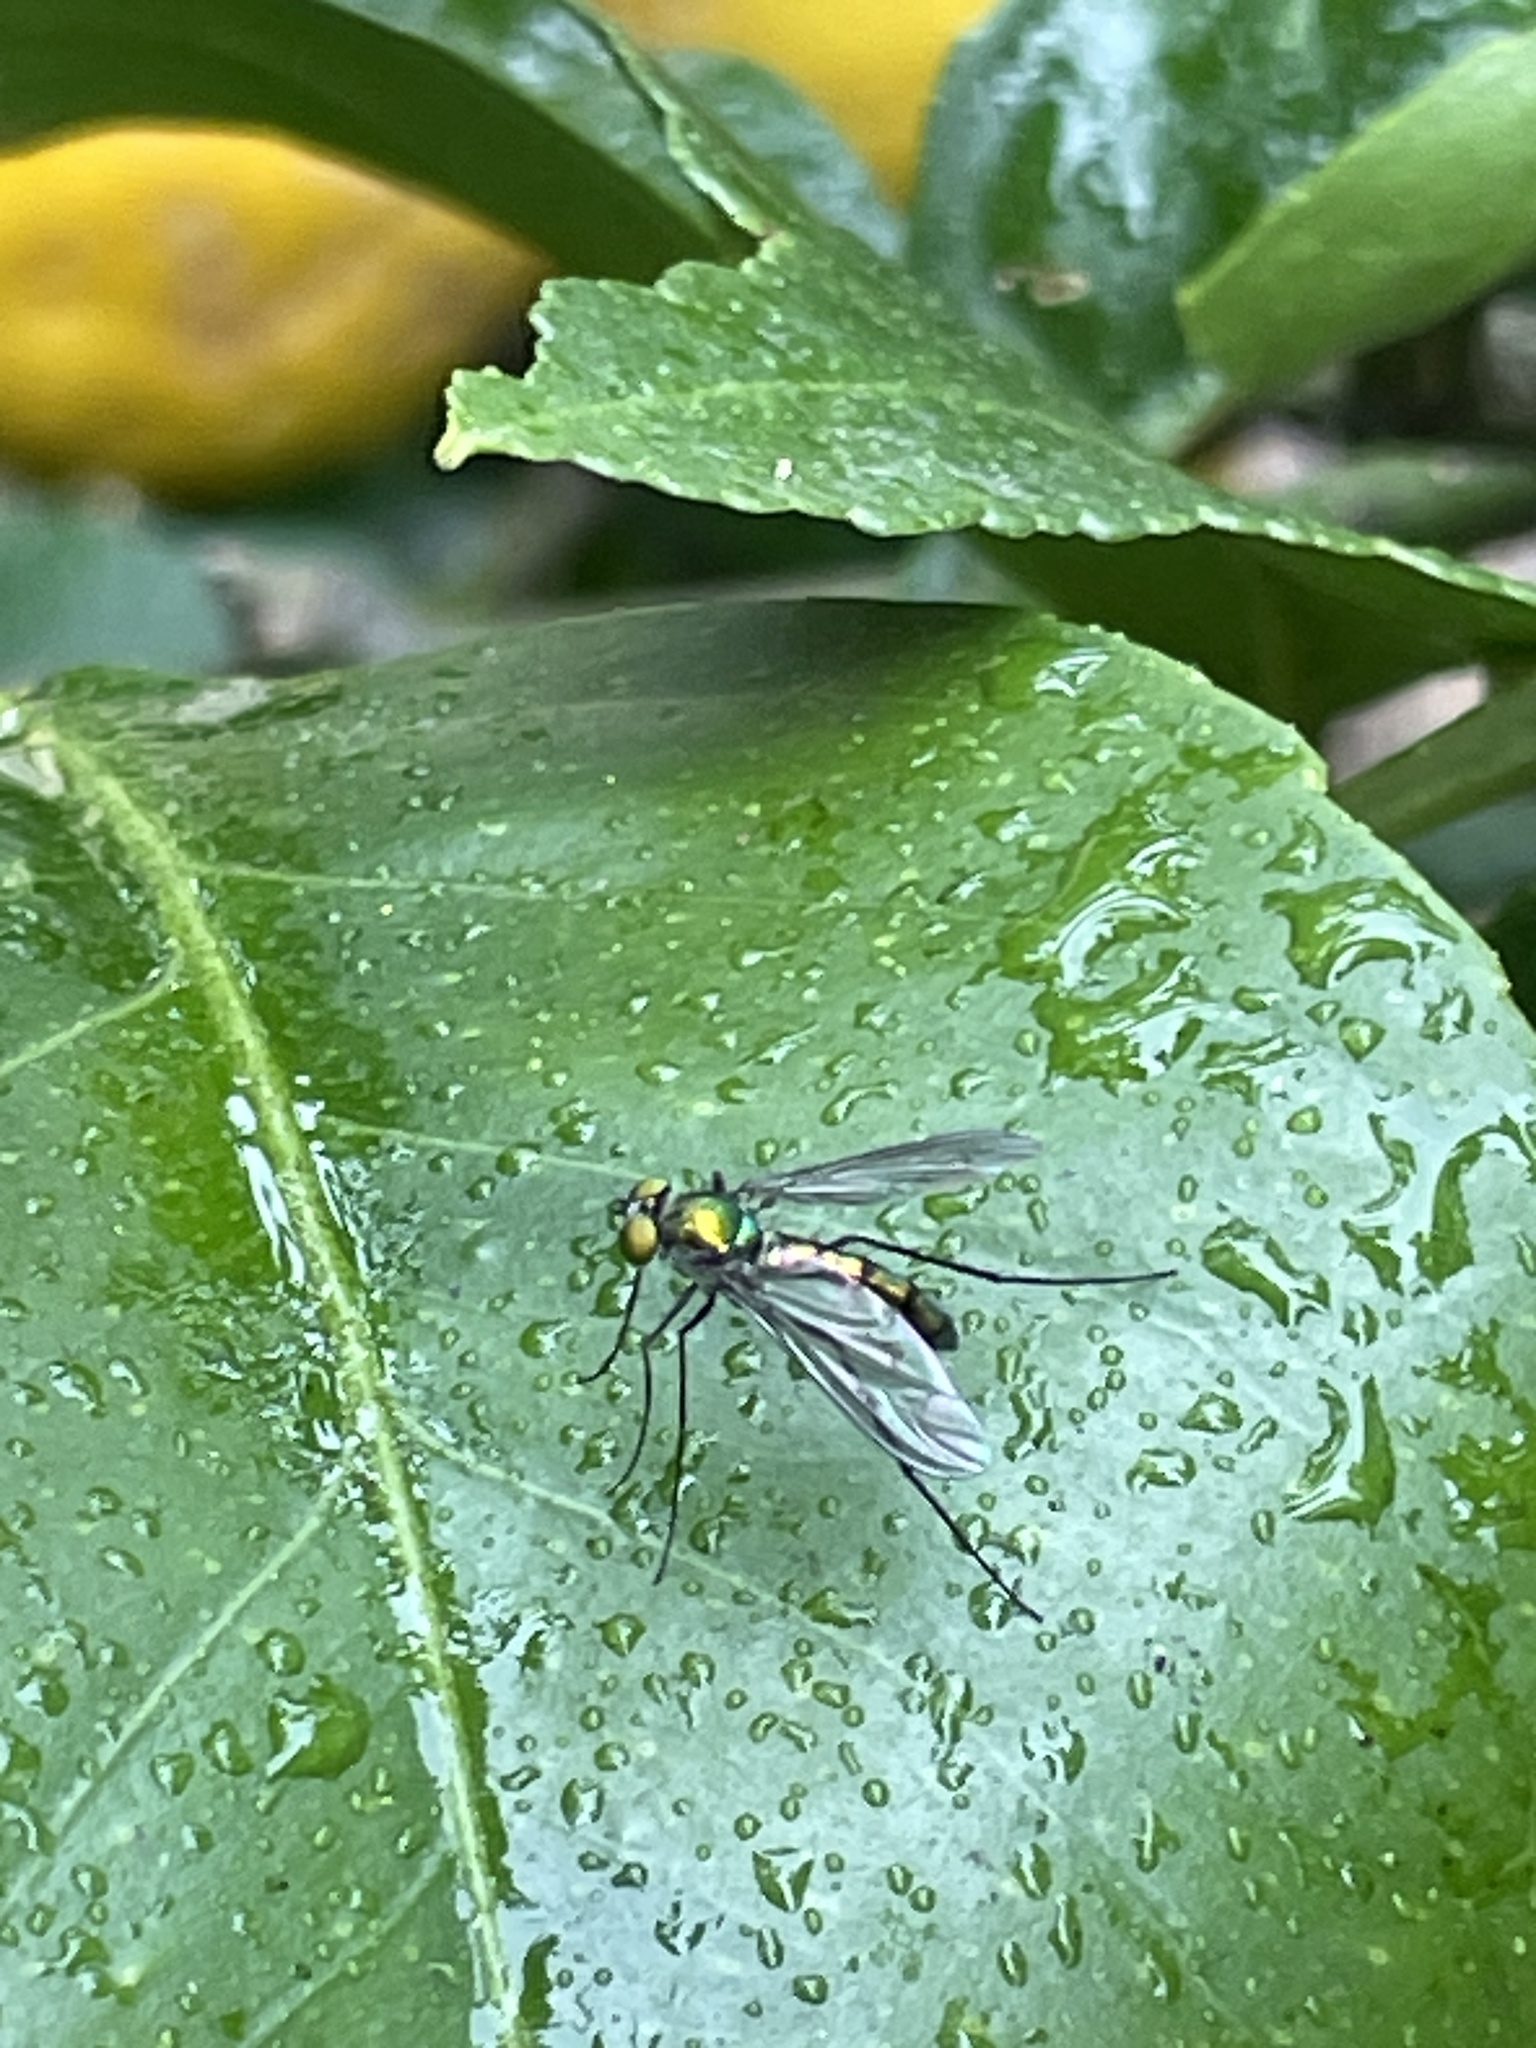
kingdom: Animalia
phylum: Arthropoda
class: Insecta
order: Diptera
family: Dolichopodidae
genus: Heteropsilopus
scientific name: Heteropsilopus cingulipes
